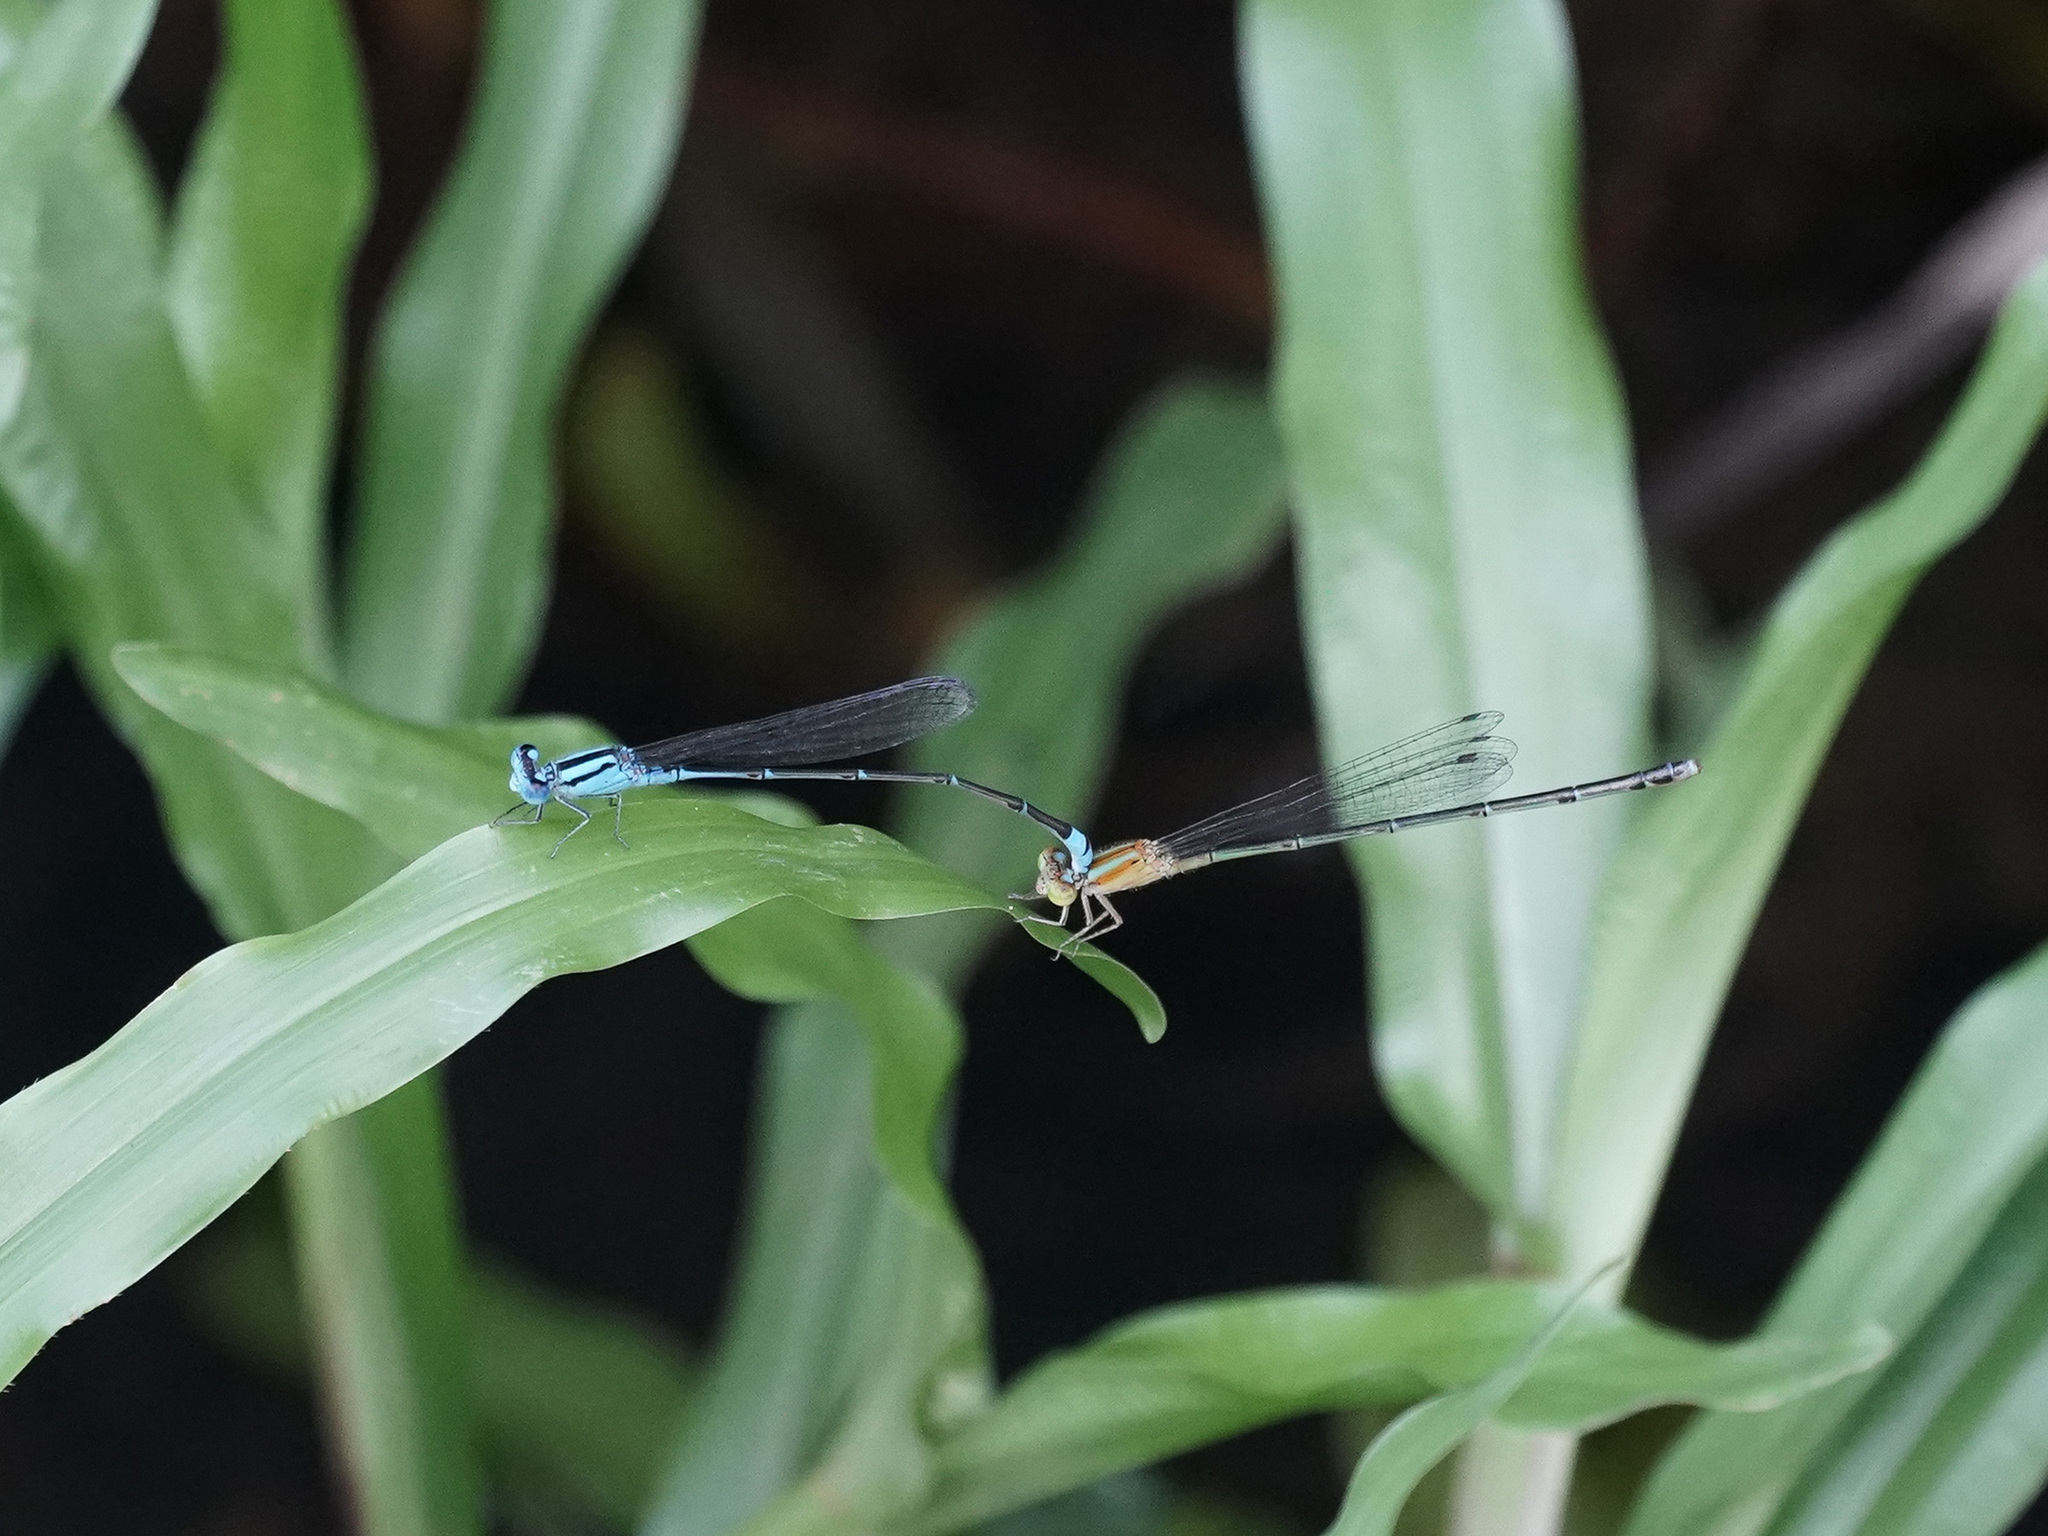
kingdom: Animalia
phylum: Arthropoda
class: Insecta
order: Odonata
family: Coenagrionidae
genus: Pseudagrion
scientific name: Pseudagrion microcephalum
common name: Blue riverdamsel
